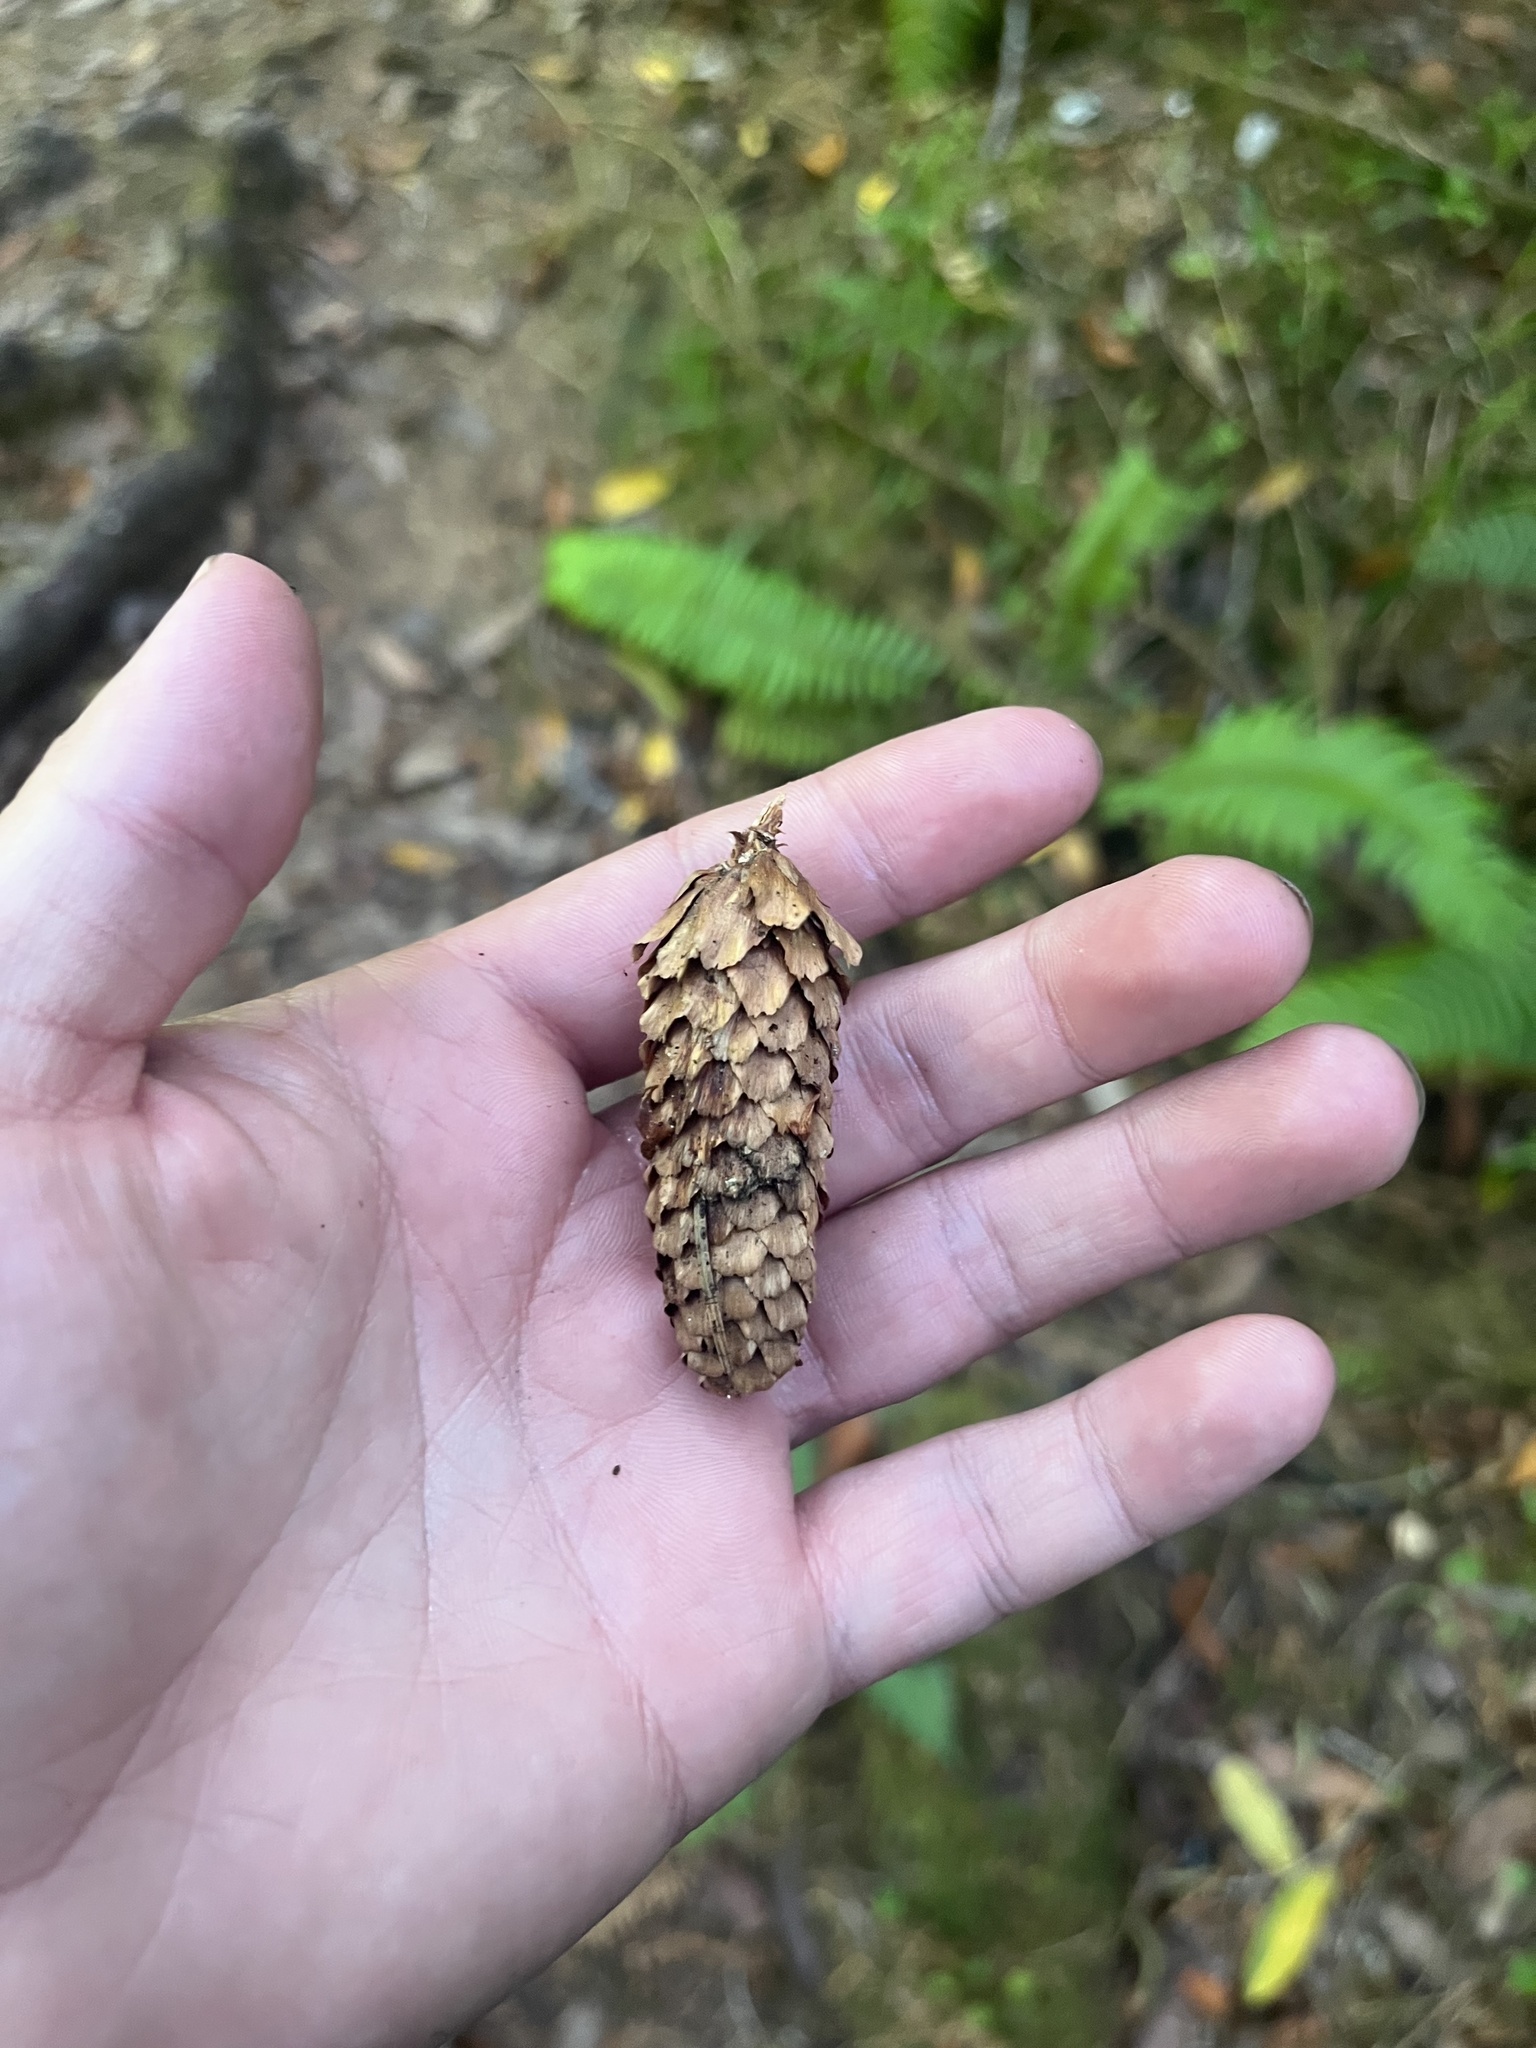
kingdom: Plantae
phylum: Tracheophyta
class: Pinopsida
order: Pinales
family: Pinaceae
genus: Picea
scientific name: Picea sitchensis
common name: Sitka spruce
